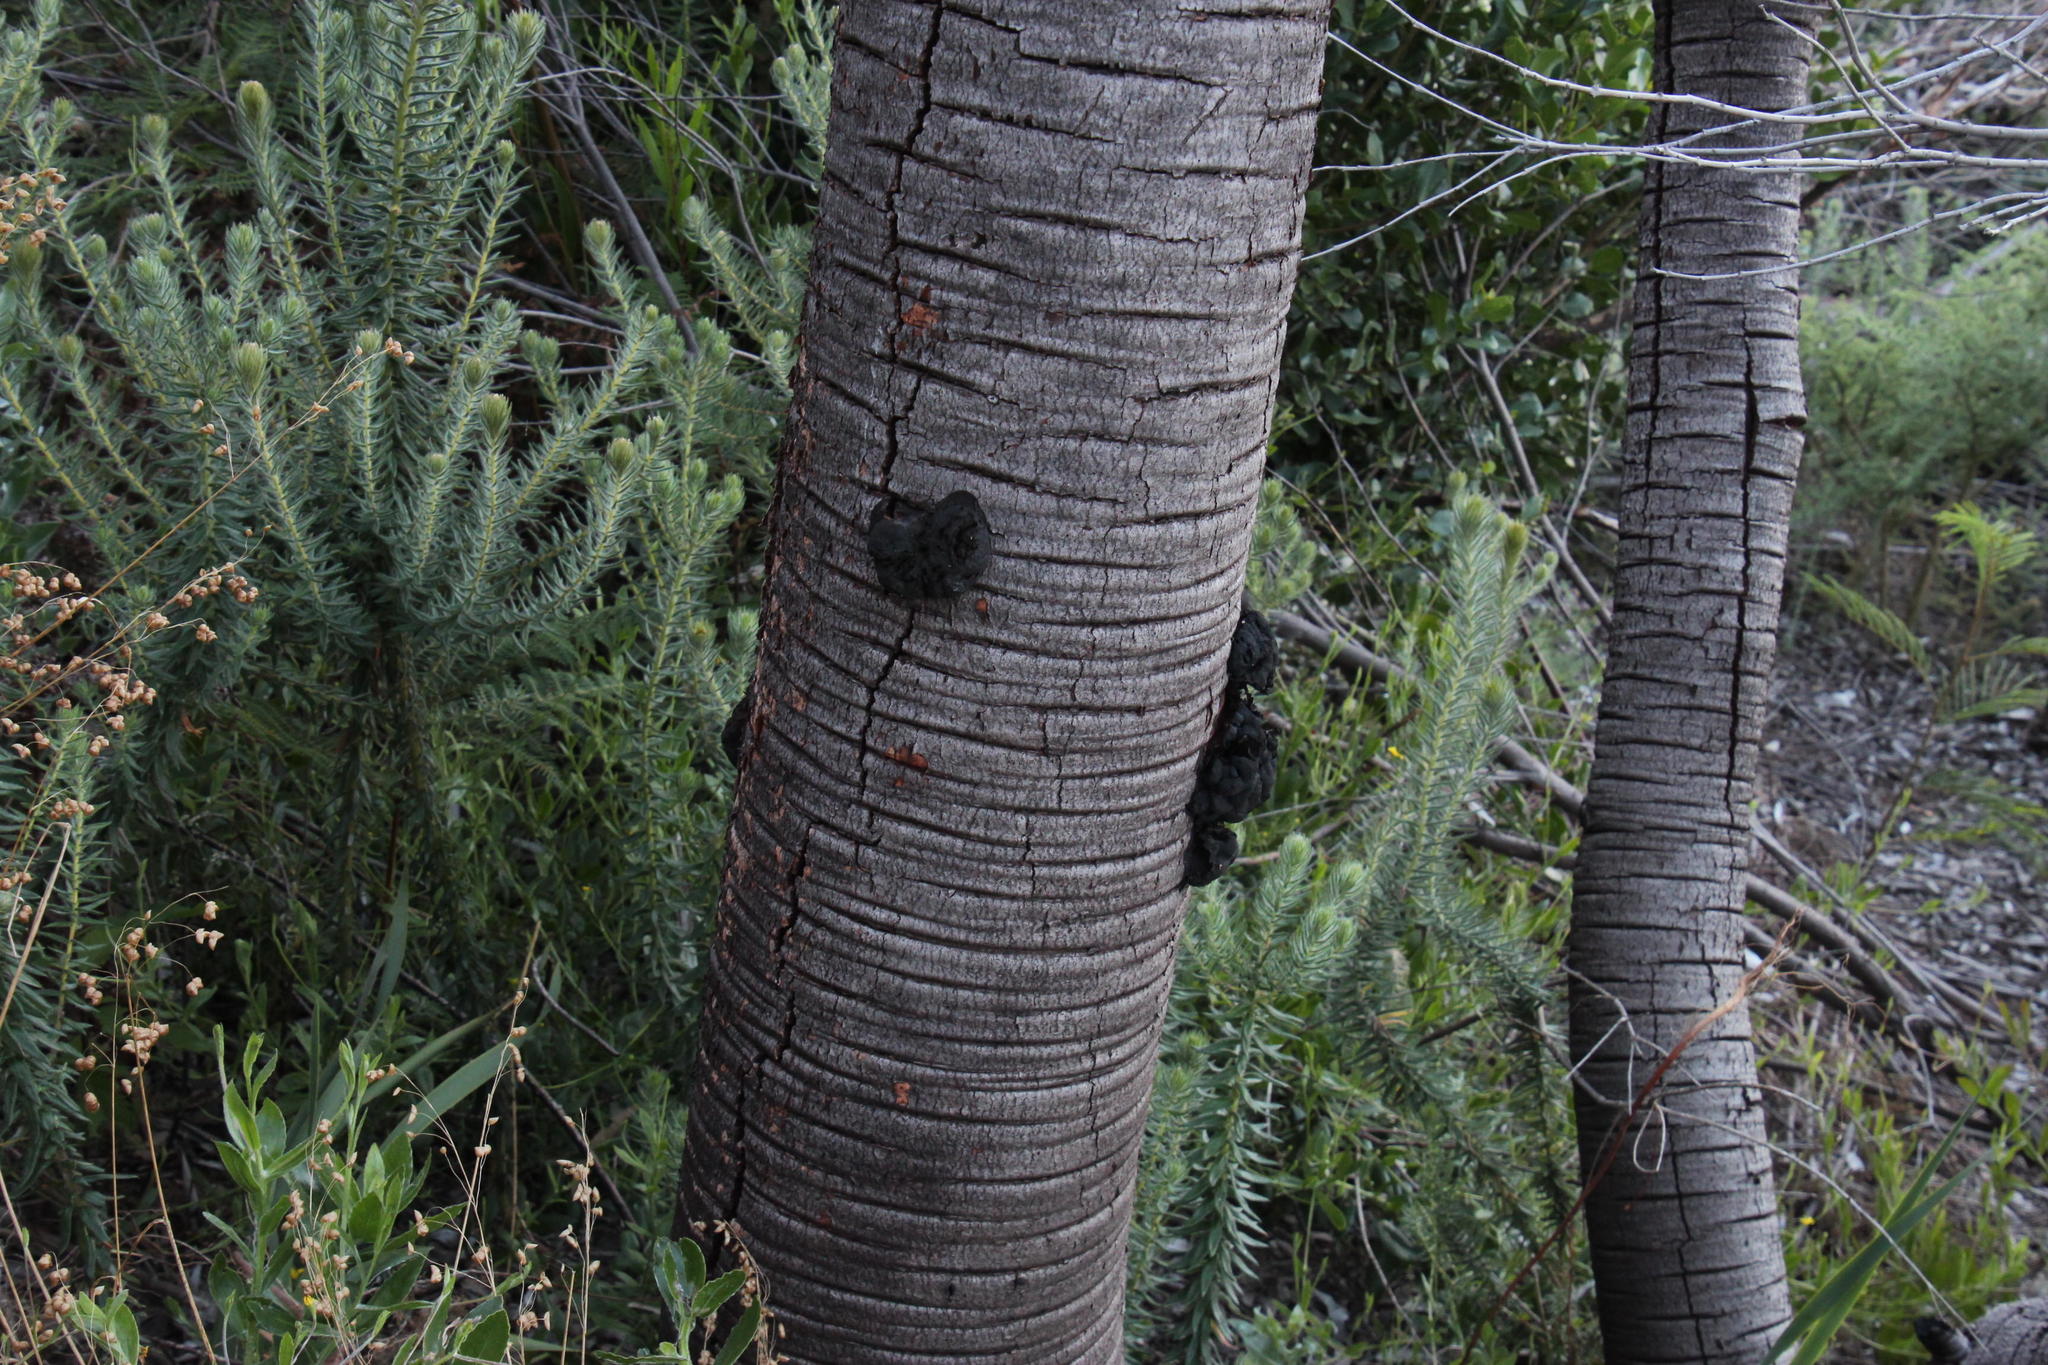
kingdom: Plantae
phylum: Tracheophyta
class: Magnoliopsida
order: Proteales
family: Proteaceae
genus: Leucadendron
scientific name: Leucadendron argenteum
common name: Cape silver tree
